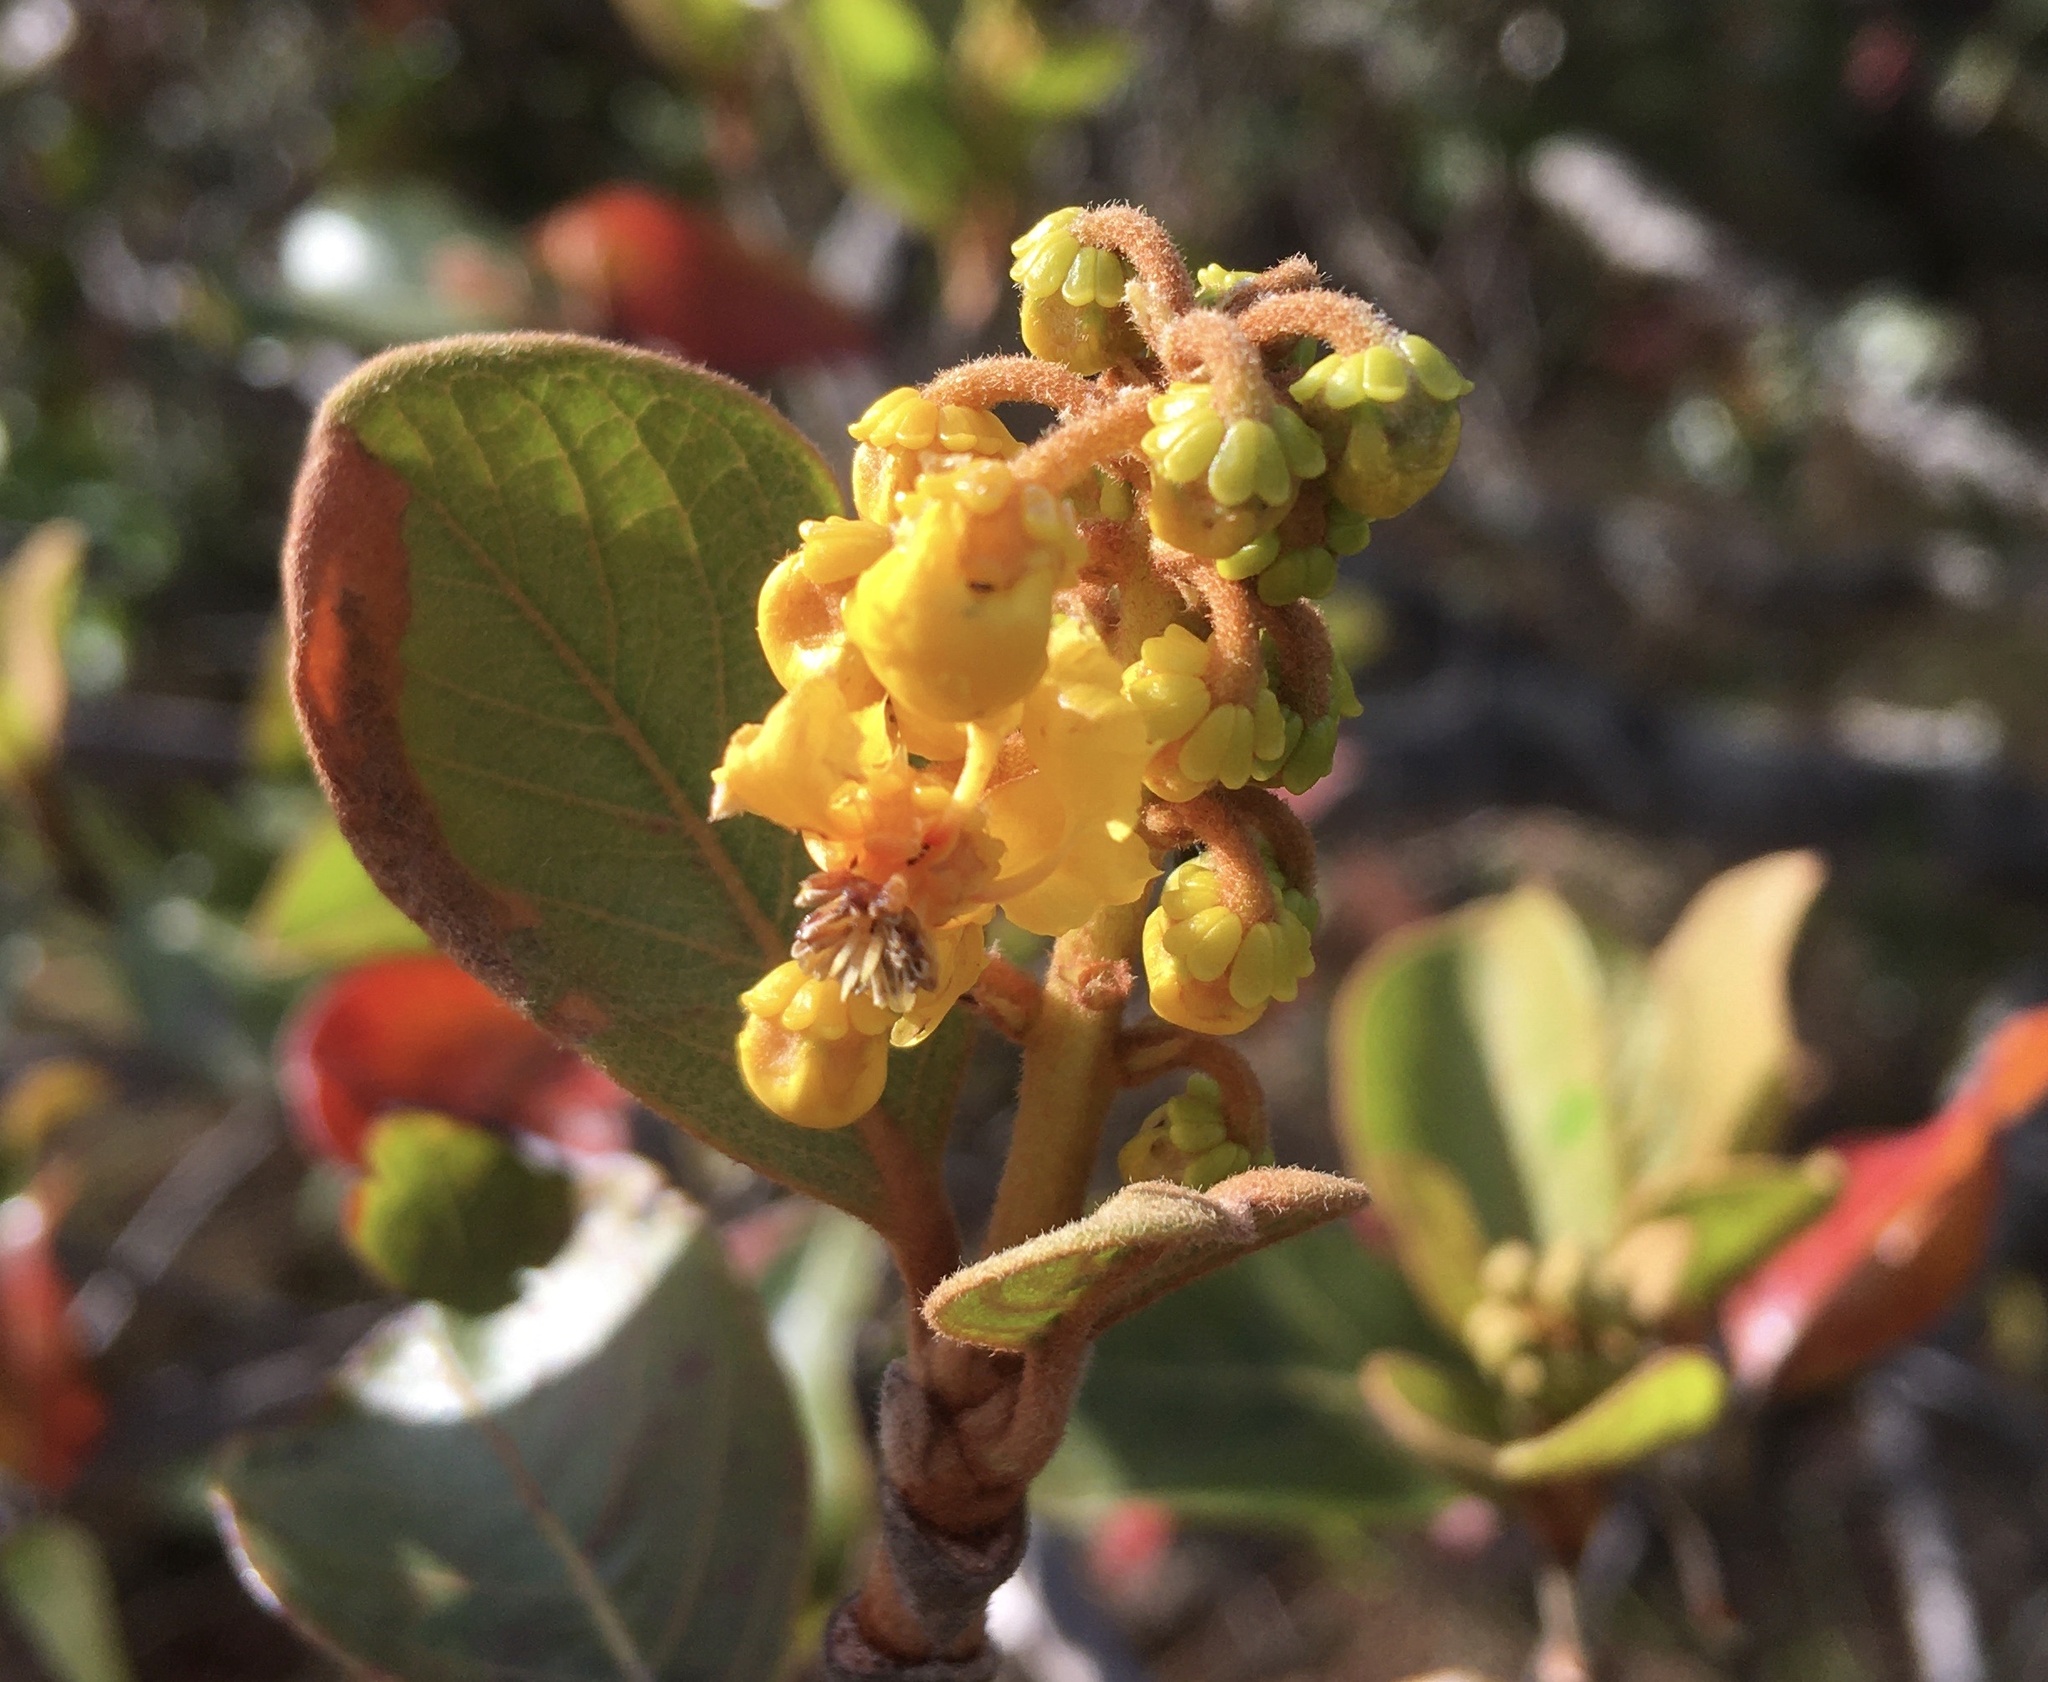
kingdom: Plantae
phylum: Tracheophyta
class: Magnoliopsida
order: Malpighiales
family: Malpighiaceae
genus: Byrsonima
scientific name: Byrsonima crassifolia
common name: Golden spoon
